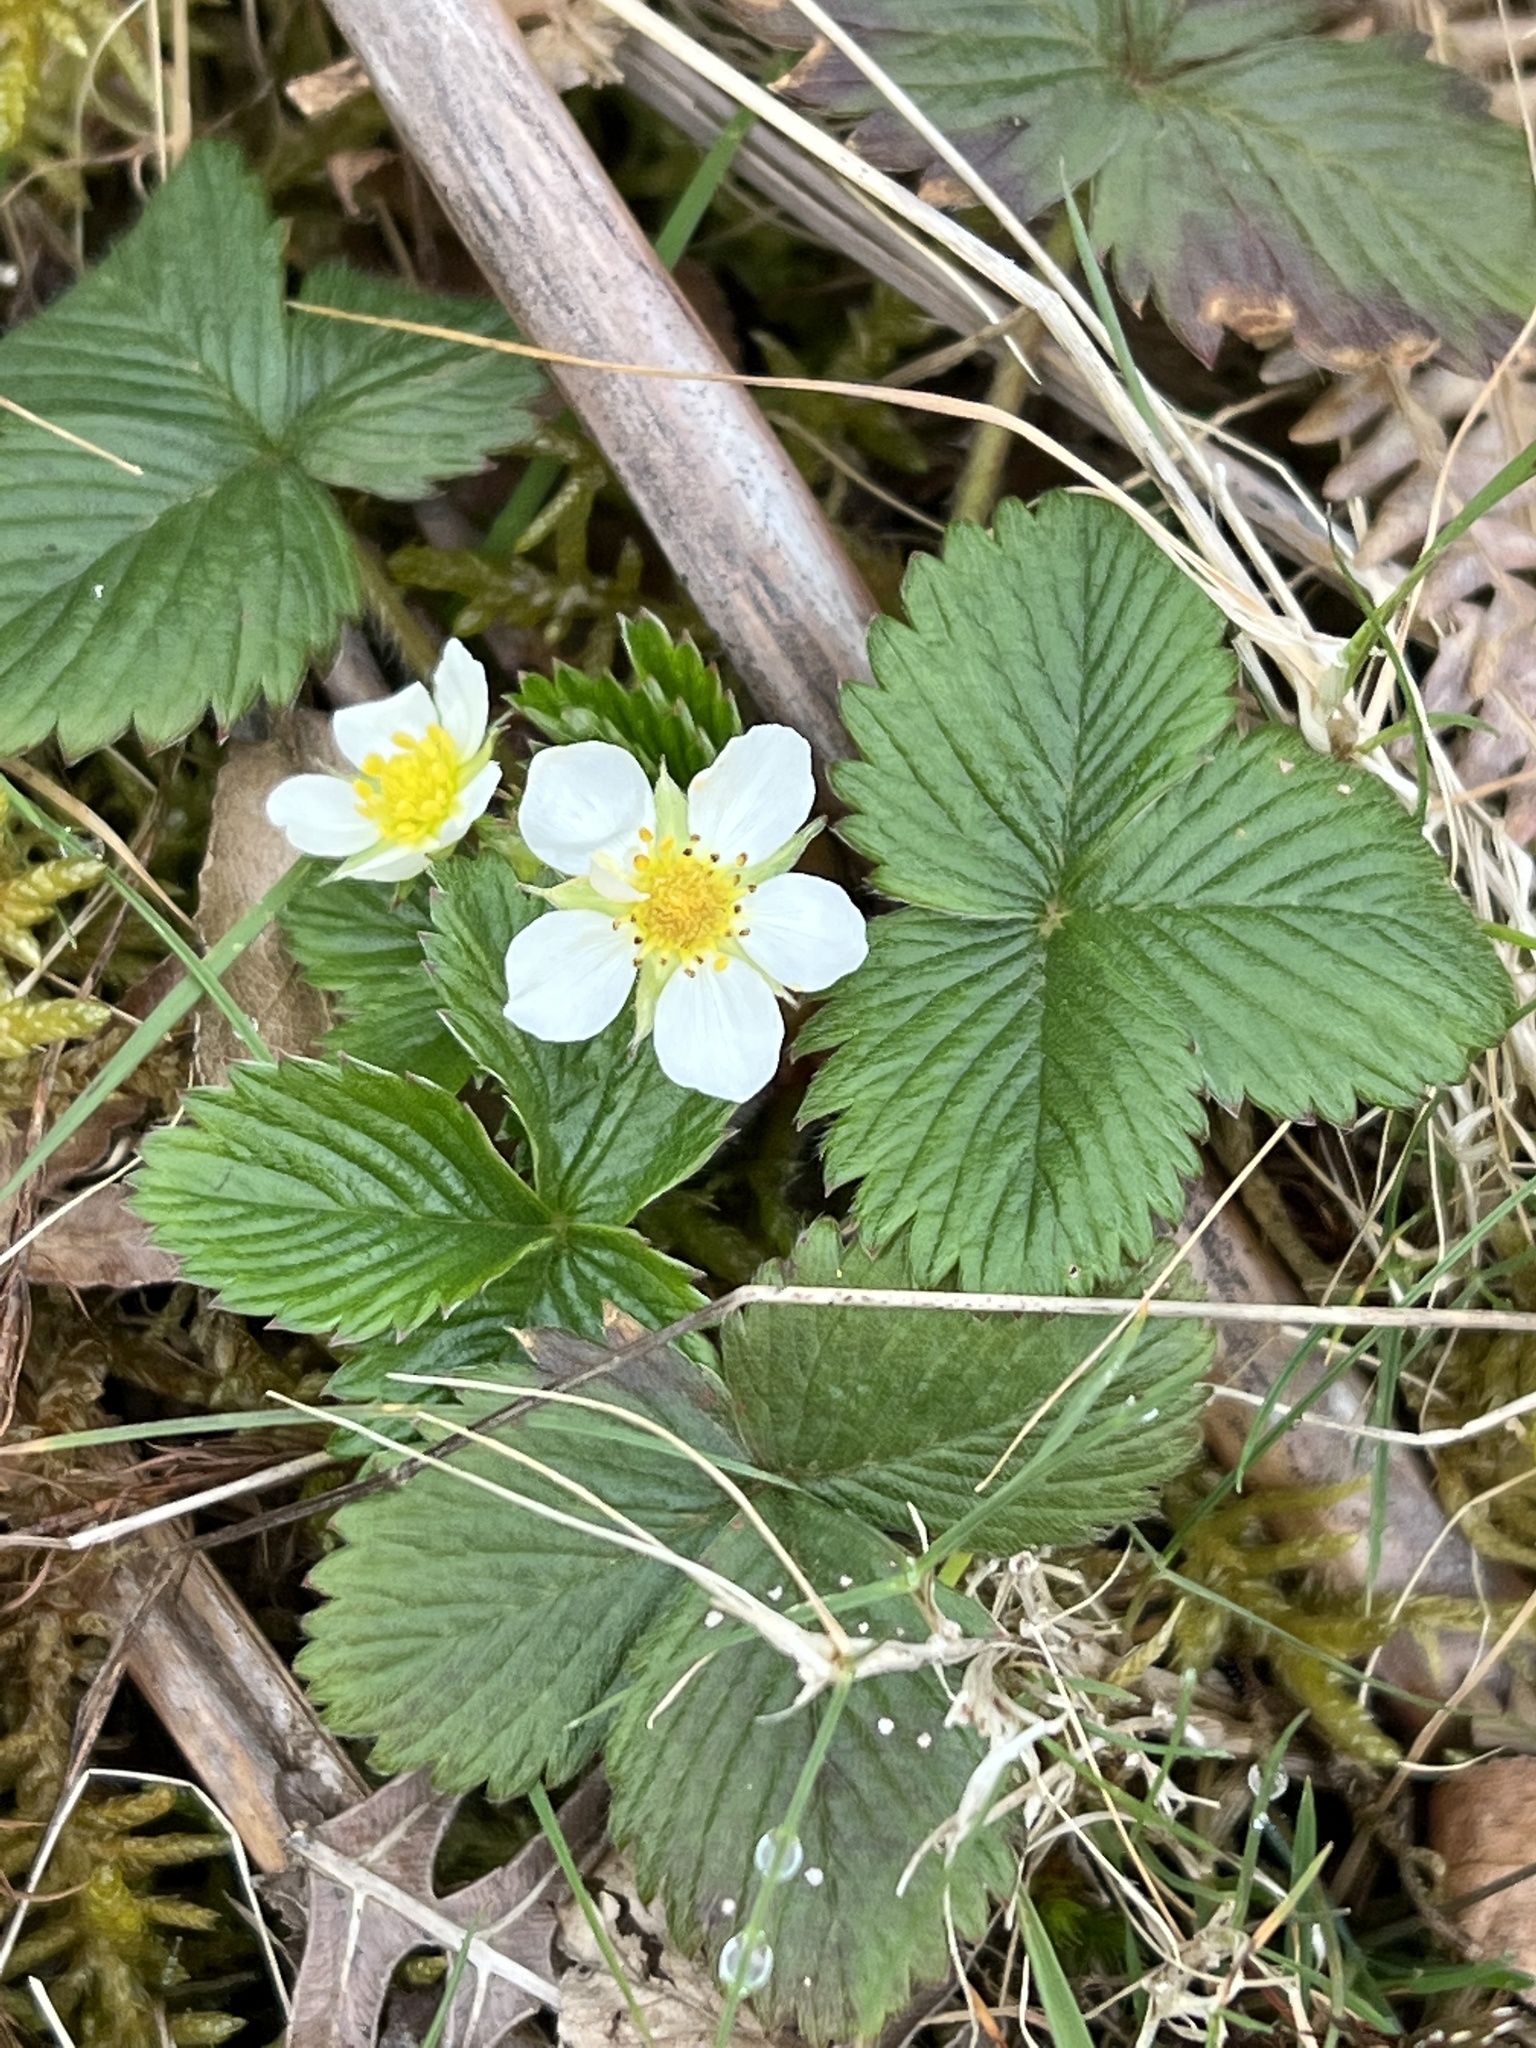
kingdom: Plantae
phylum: Tracheophyta
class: Magnoliopsida
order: Rosales
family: Rosaceae
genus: Fragaria
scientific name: Fragaria vesca
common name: Wild strawberry
